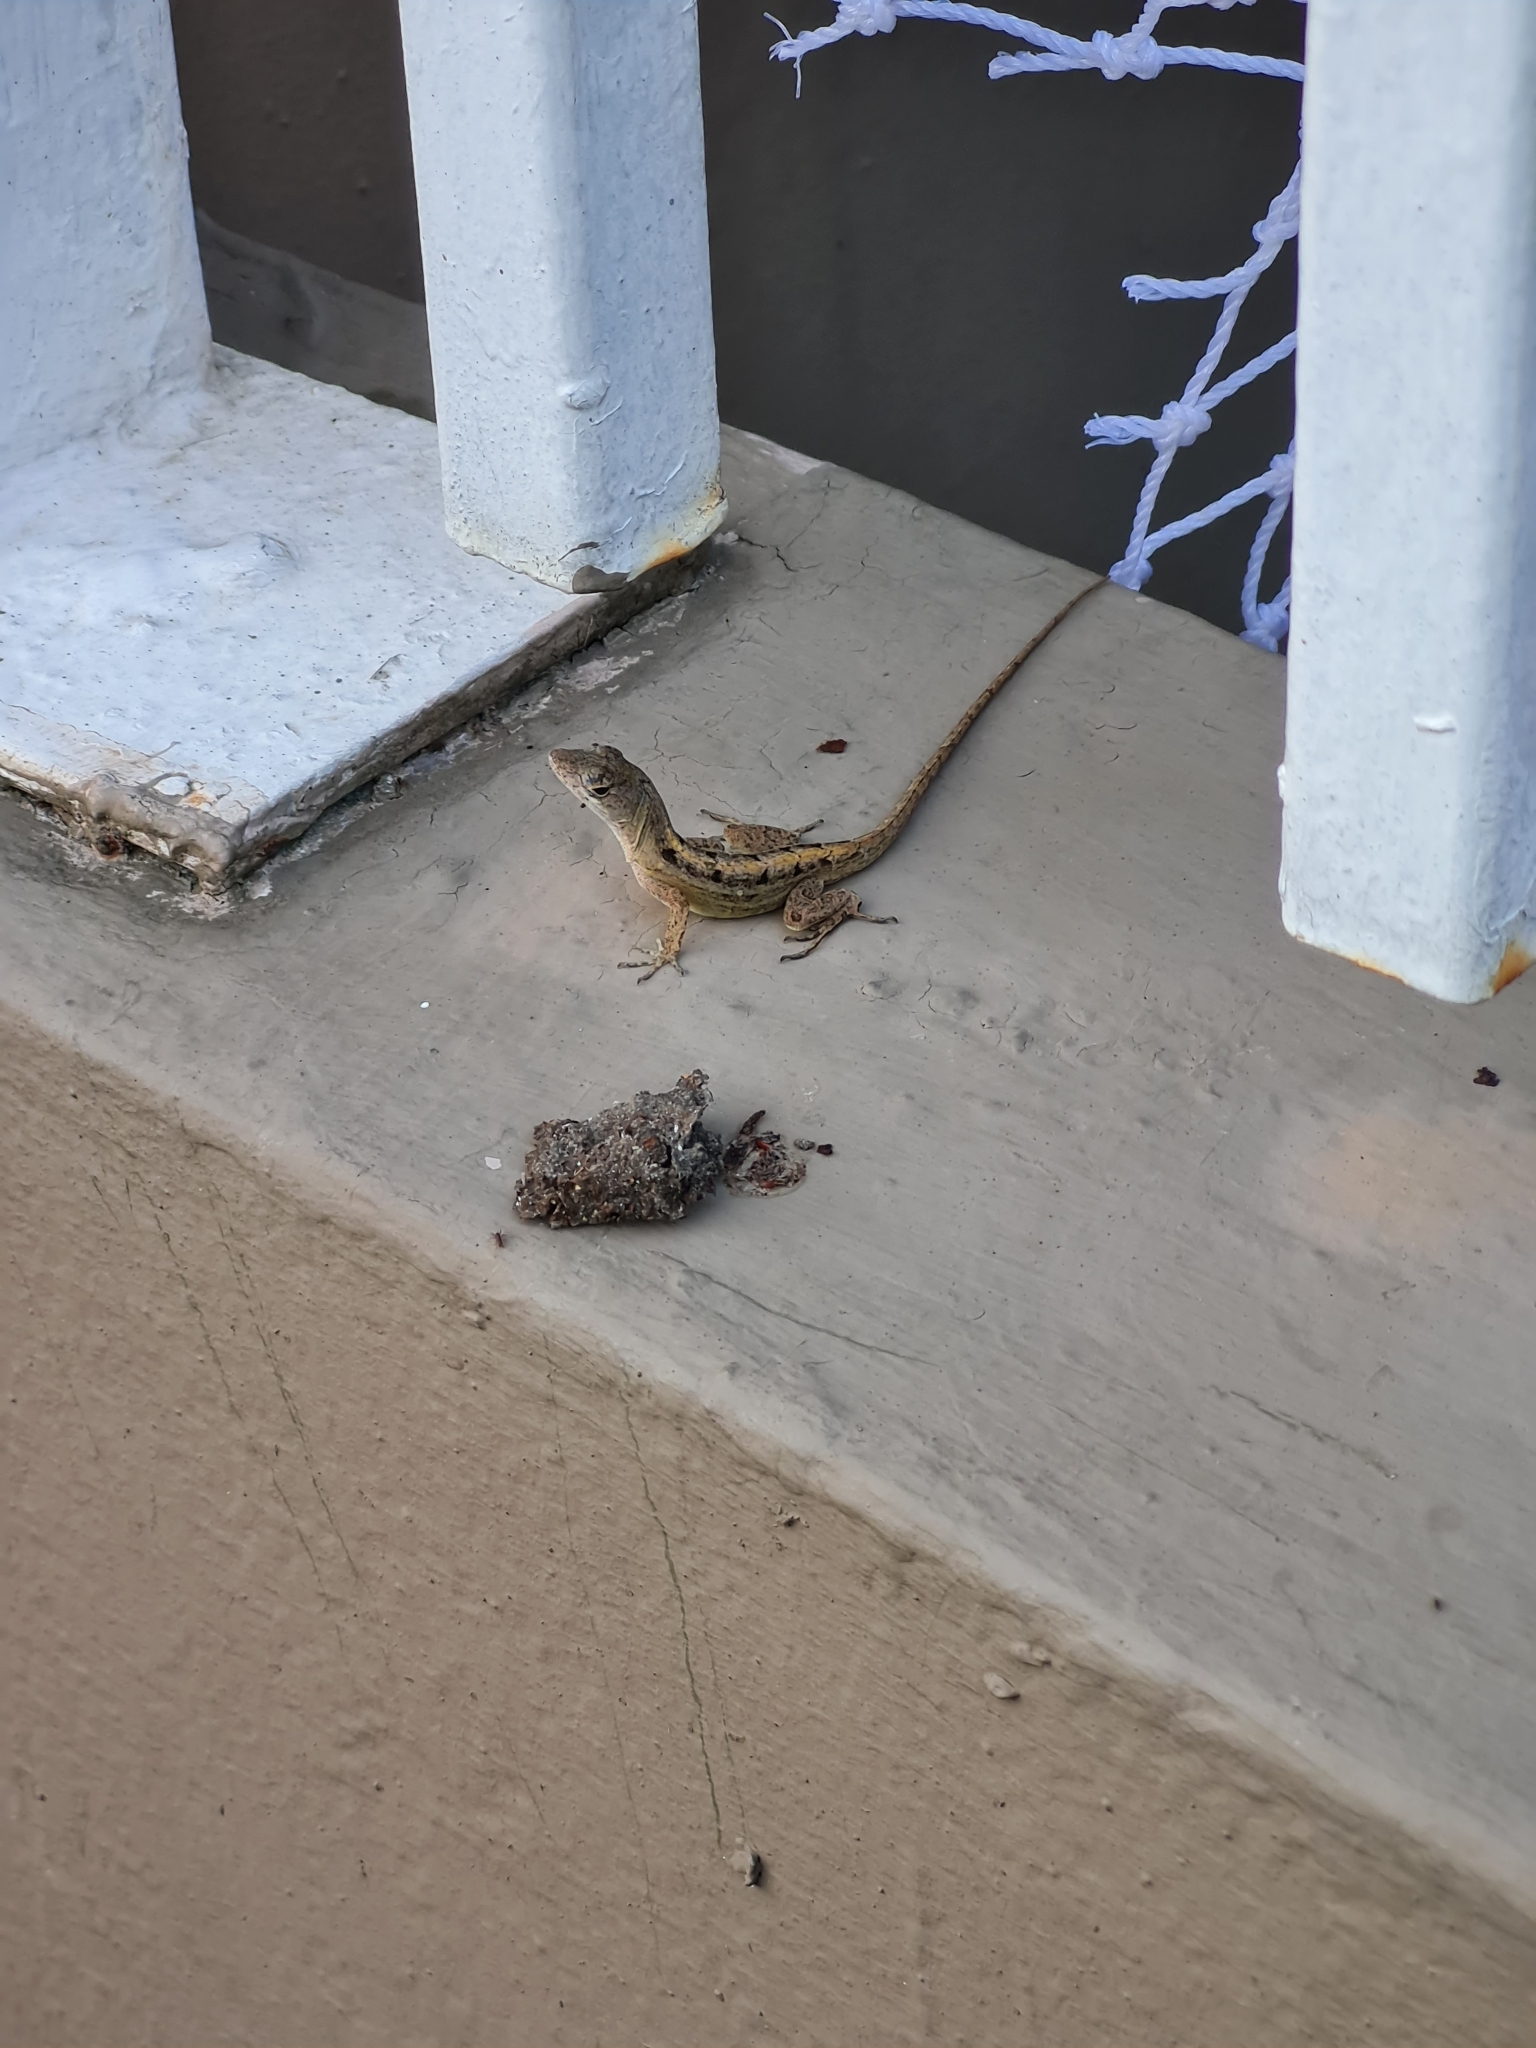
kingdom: Animalia
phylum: Chordata
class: Squamata
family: Dactyloidae
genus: Anolis
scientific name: Anolis sagrei
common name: Brown anole
